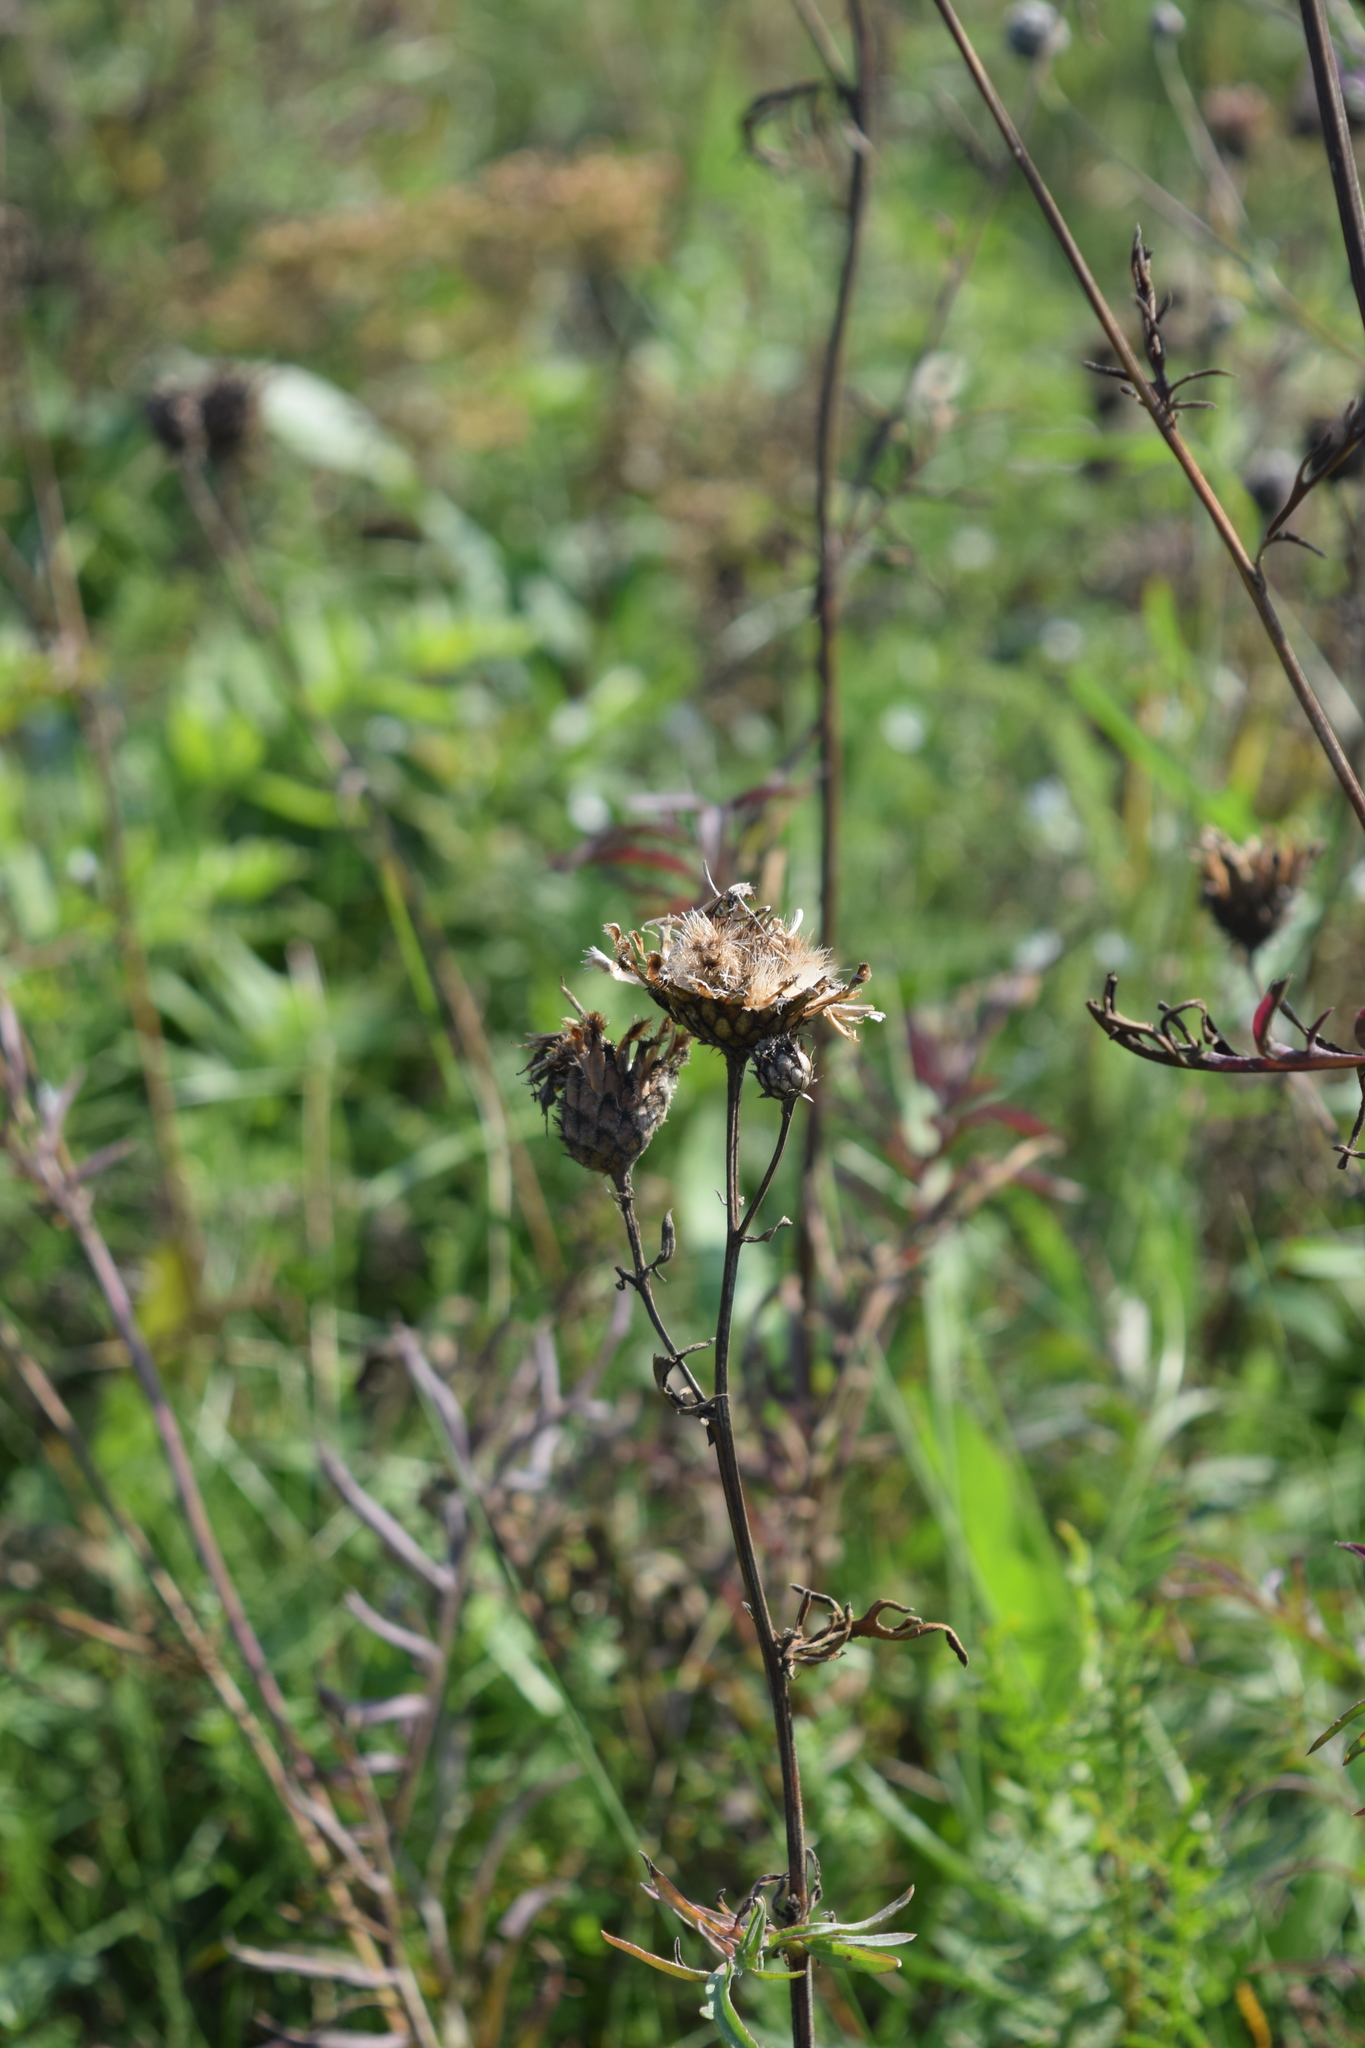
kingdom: Plantae
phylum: Tracheophyta
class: Magnoliopsida
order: Asterales
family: Asteraceae
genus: Centaurea
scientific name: Centaurea scabiosa
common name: Greater knapweed
